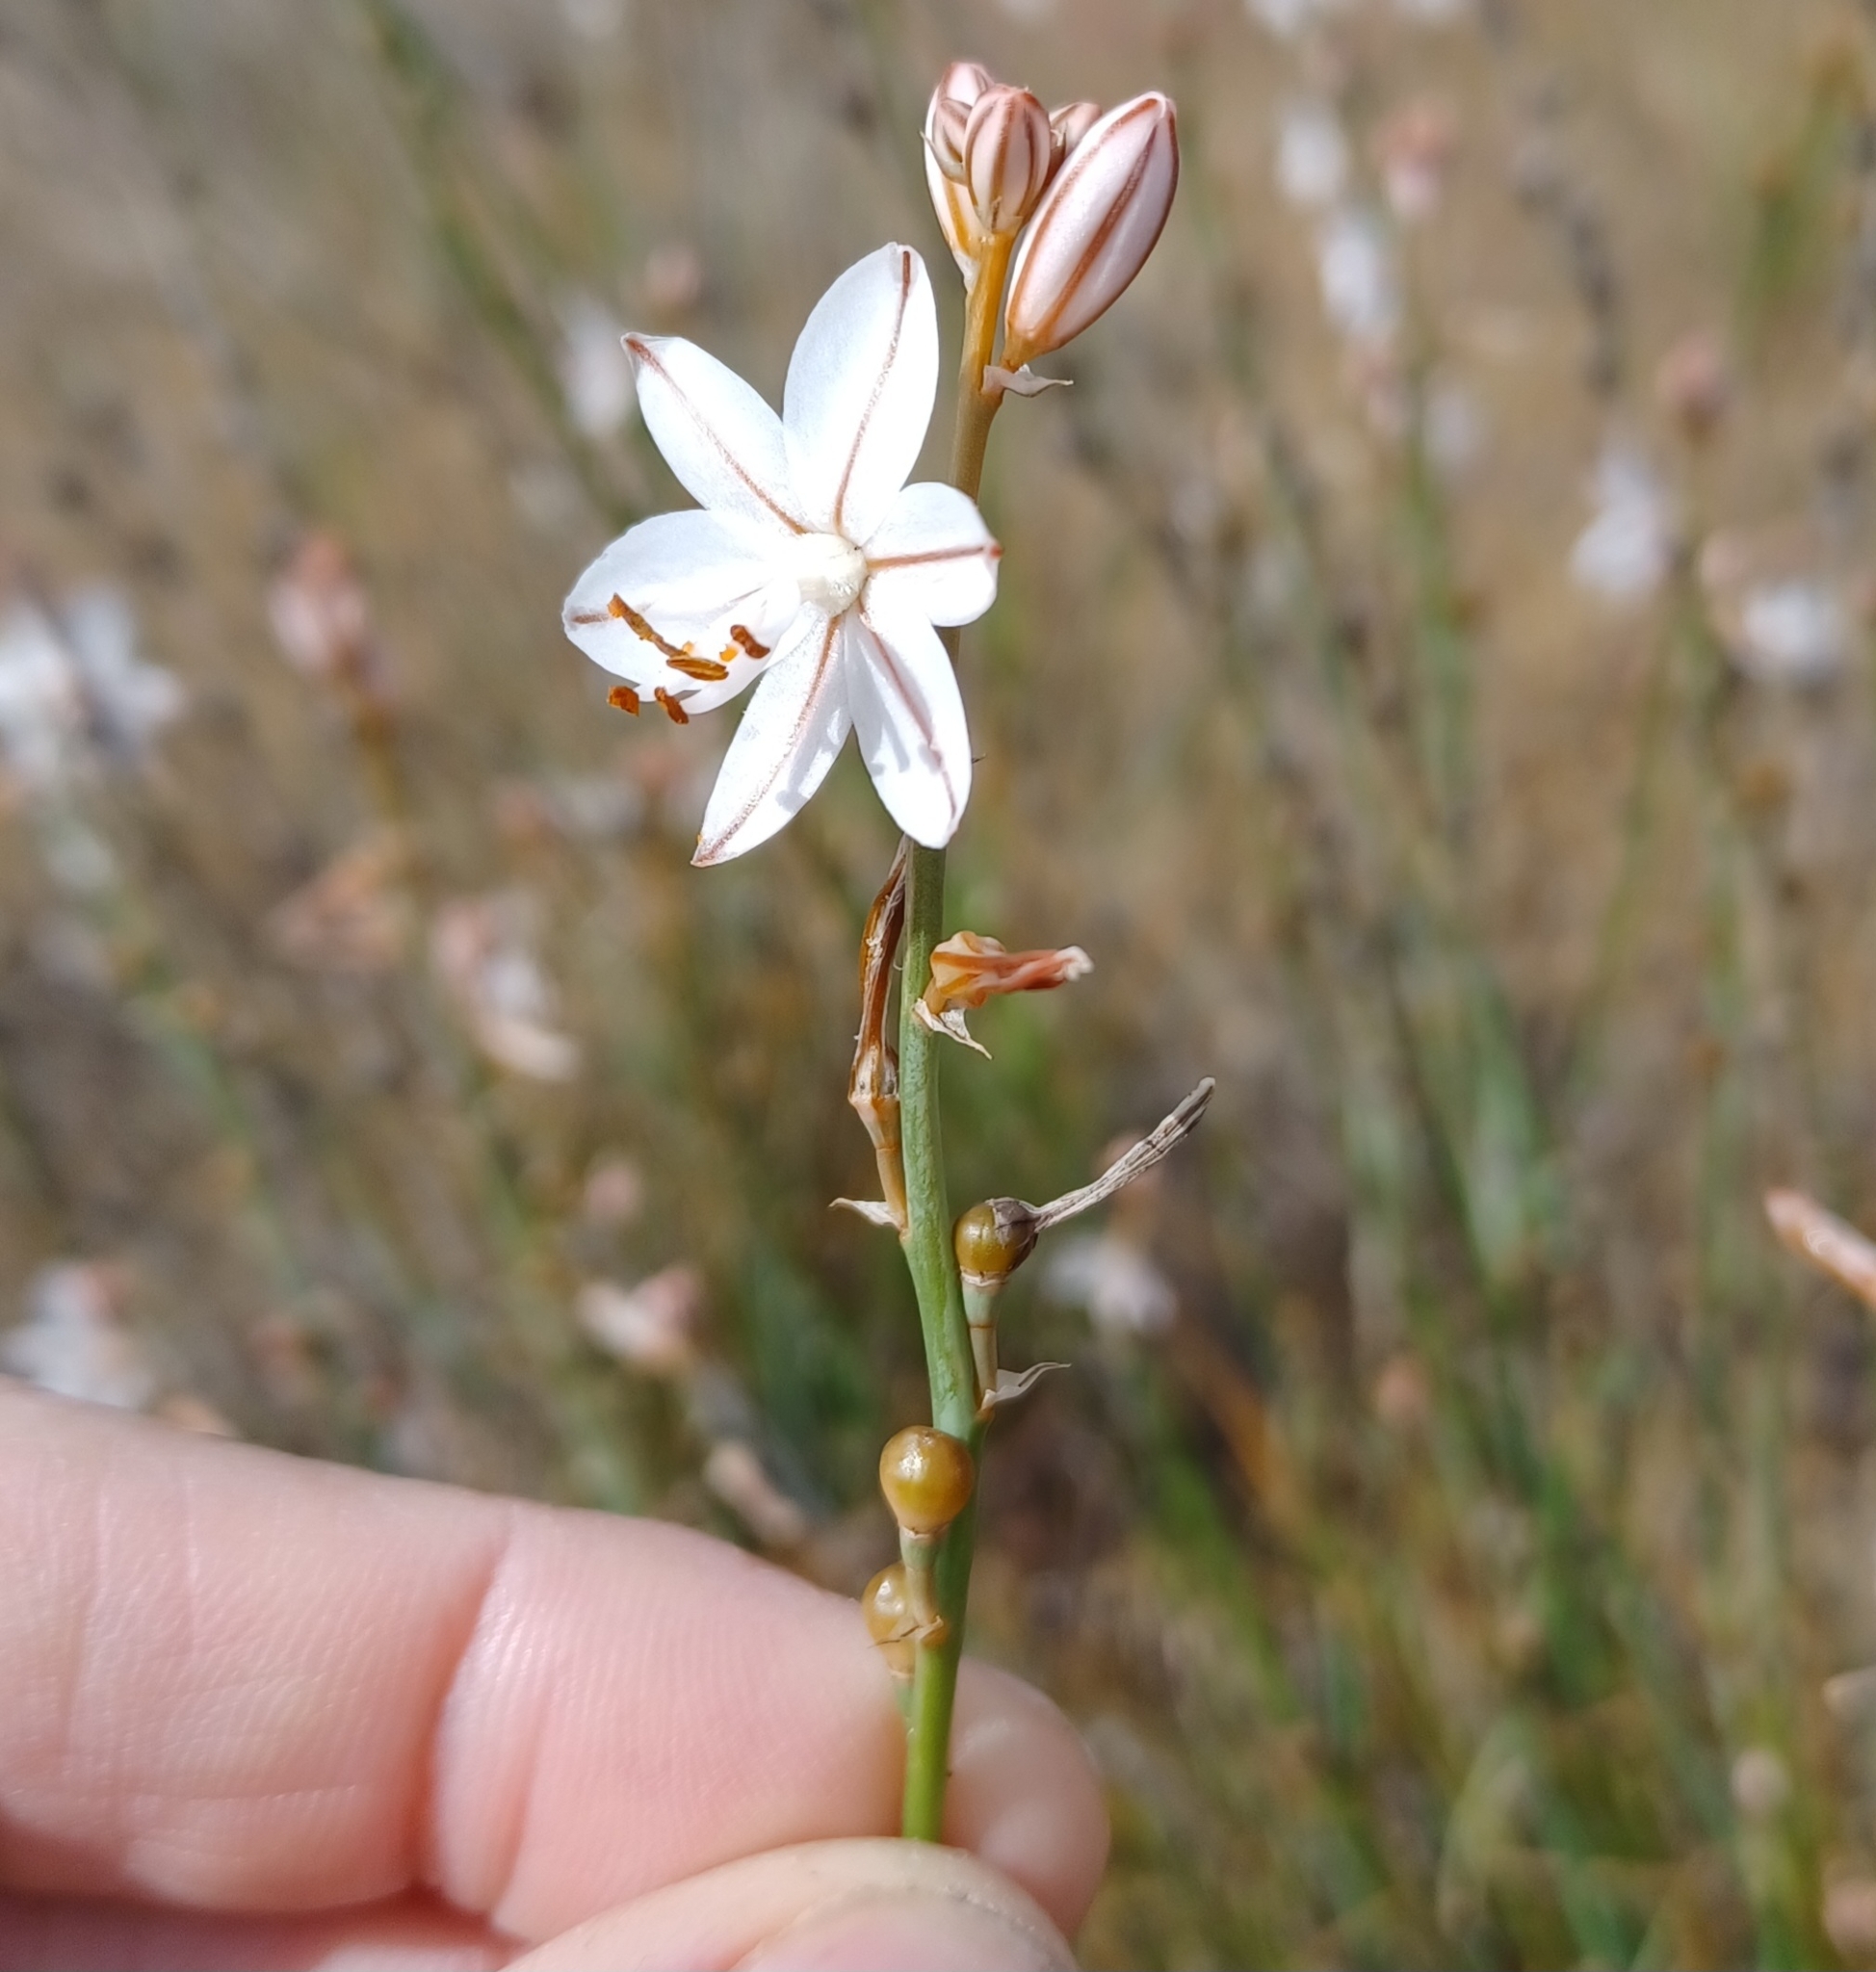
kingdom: Plantae
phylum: Tracheophyta
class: Liliopsida
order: Asparagales
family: Asphodelaceae
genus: Asphodelus
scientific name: Asphodelus fistulosus
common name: Onionweed
